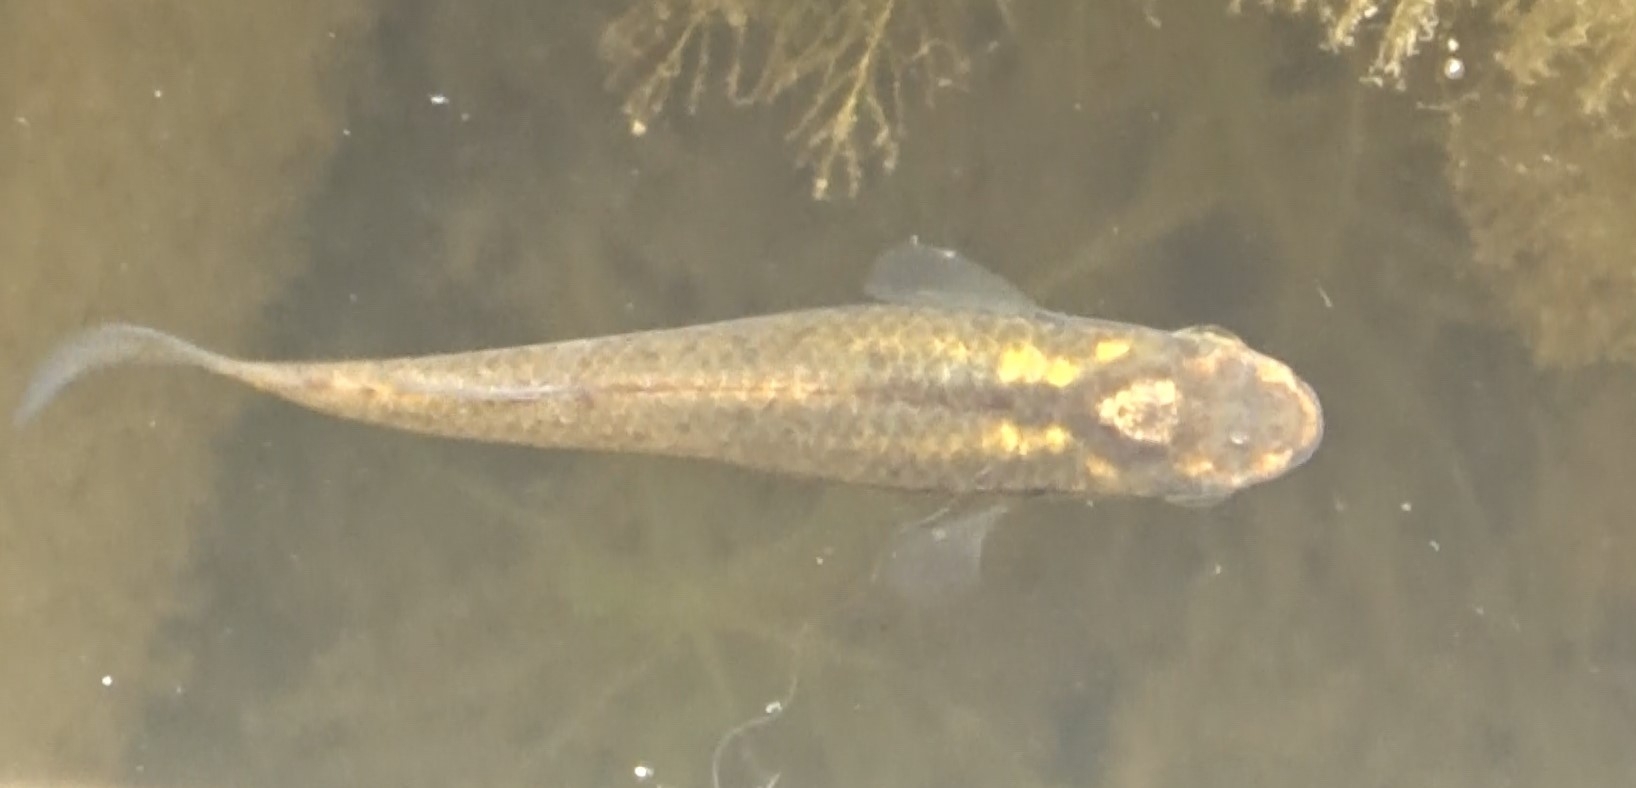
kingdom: Animalia
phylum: Chordata
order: Cyprinodontiformes
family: Fundulidae
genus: Fundulus
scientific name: Fundulus notatus
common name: Blackstripe topminnow
